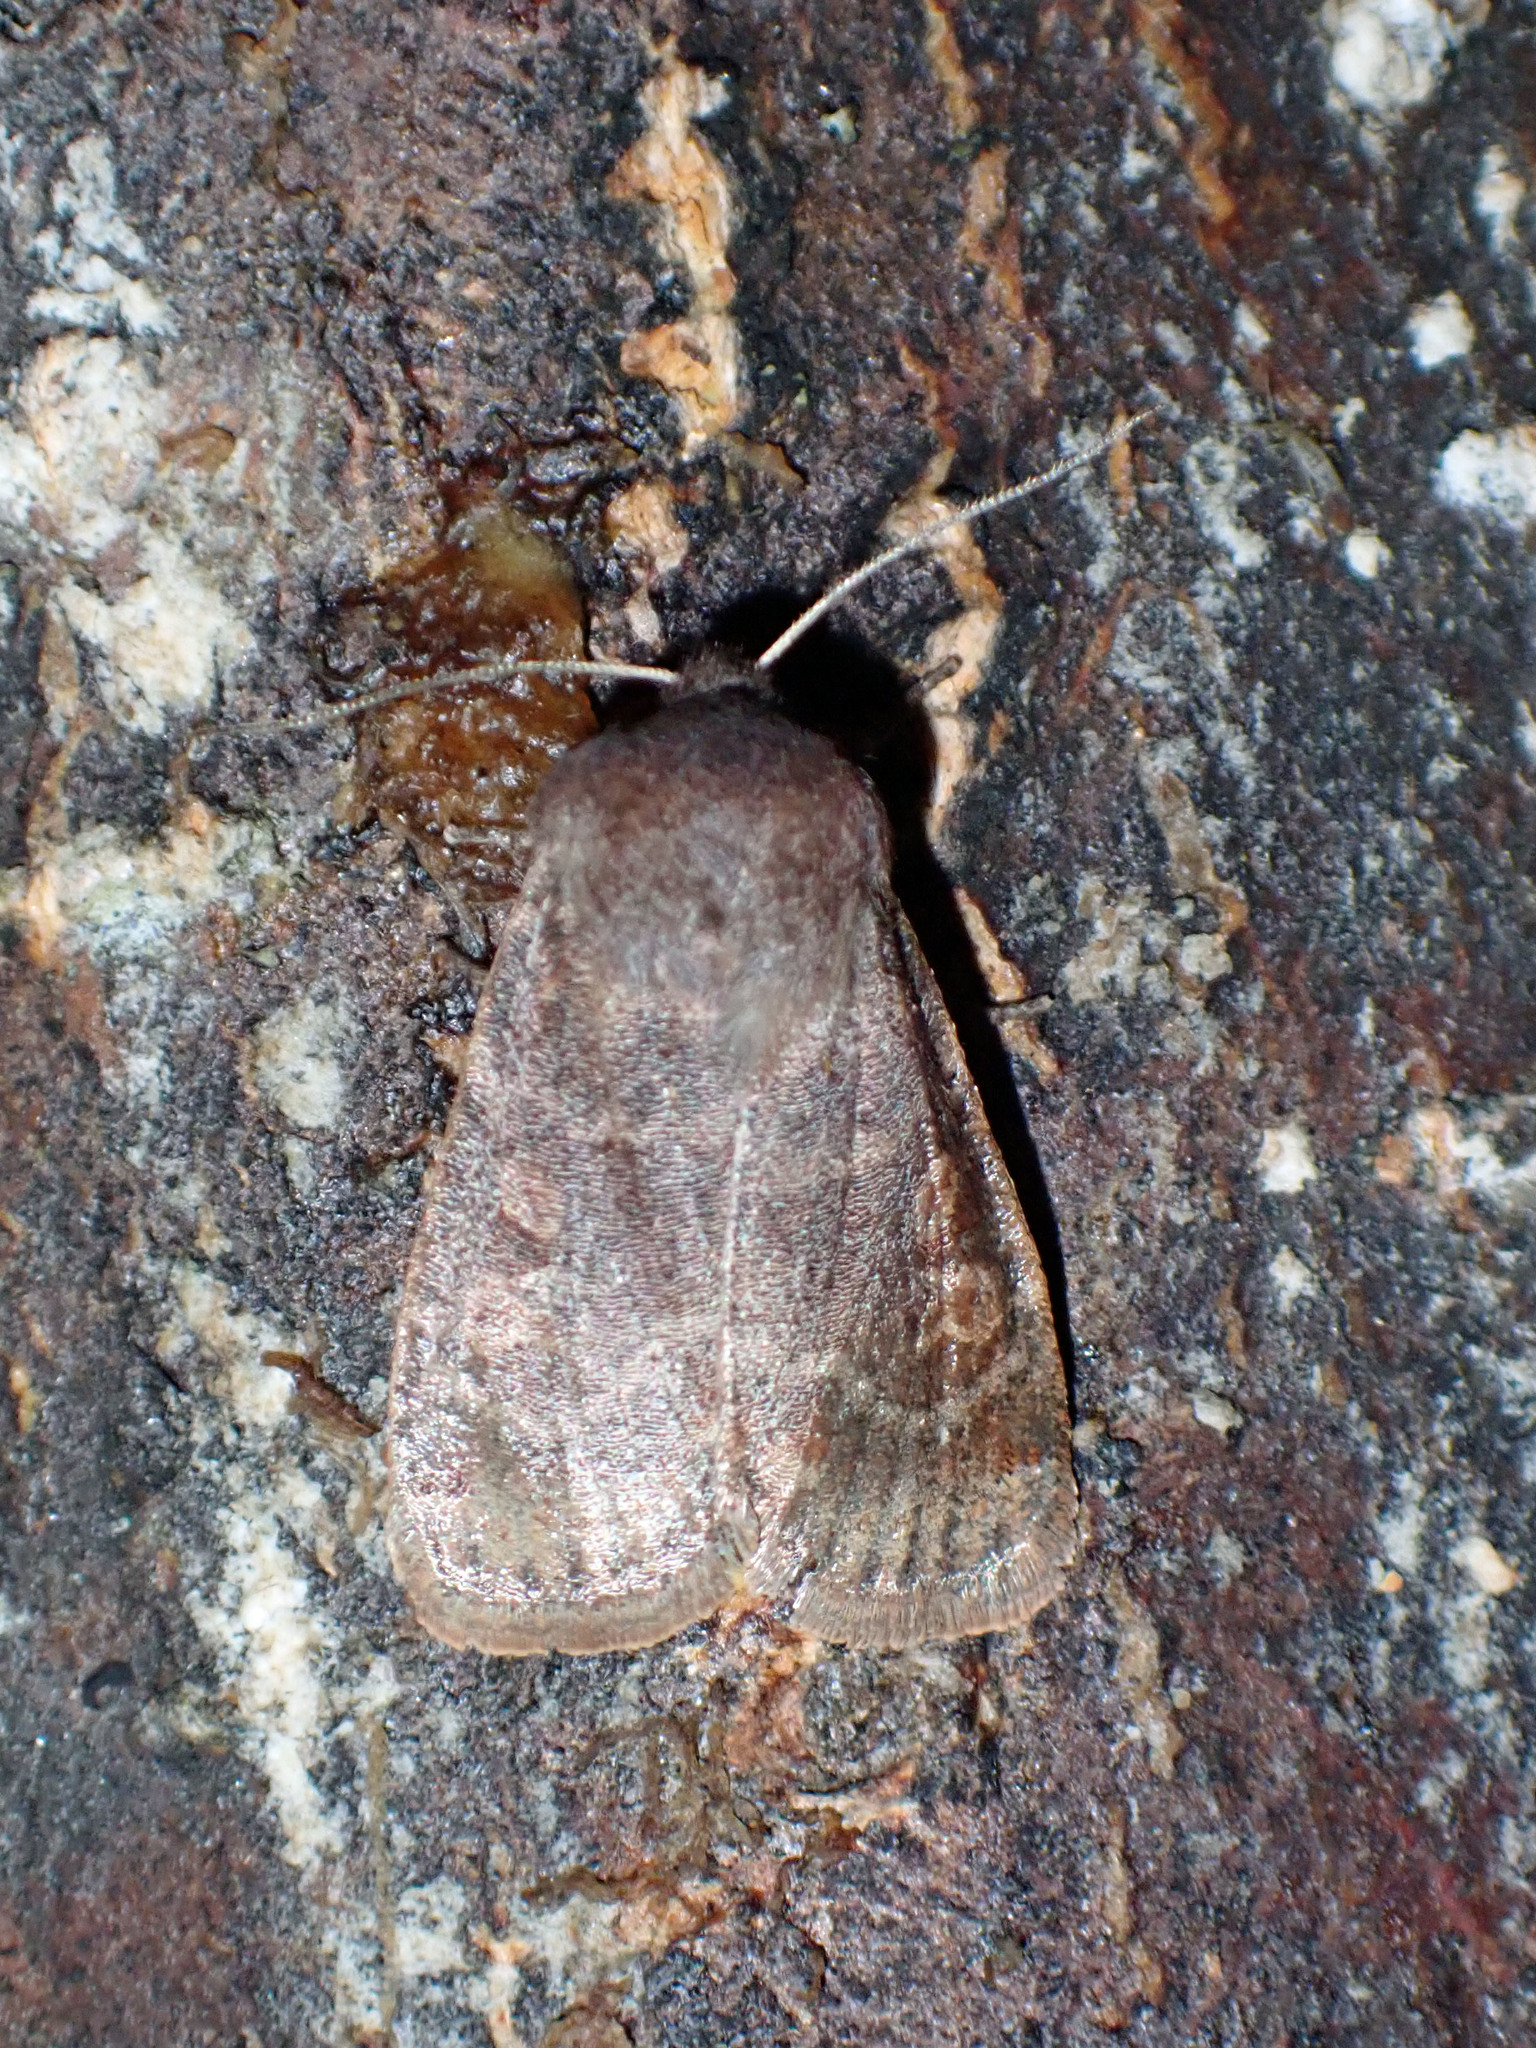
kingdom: Animalia
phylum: Arthropoda
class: Insecta
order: Lepidoptera
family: Noctuidae
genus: Homoglaea
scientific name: Homoglaea hircina
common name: Goat sallow
